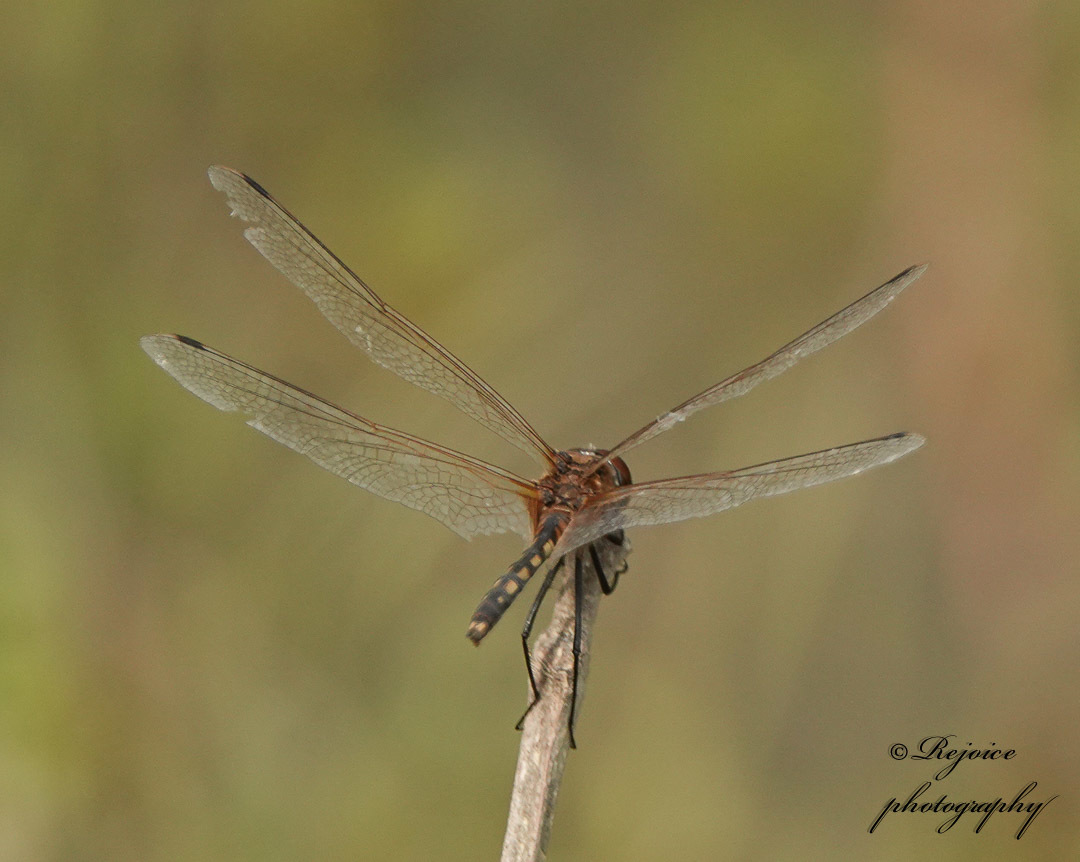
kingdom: Animalia
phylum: Arthropoda
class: Insecta
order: Odonata
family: Libellulidae
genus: Trithemis
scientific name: Trithemis pallidinervis
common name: Dancing dropwing
